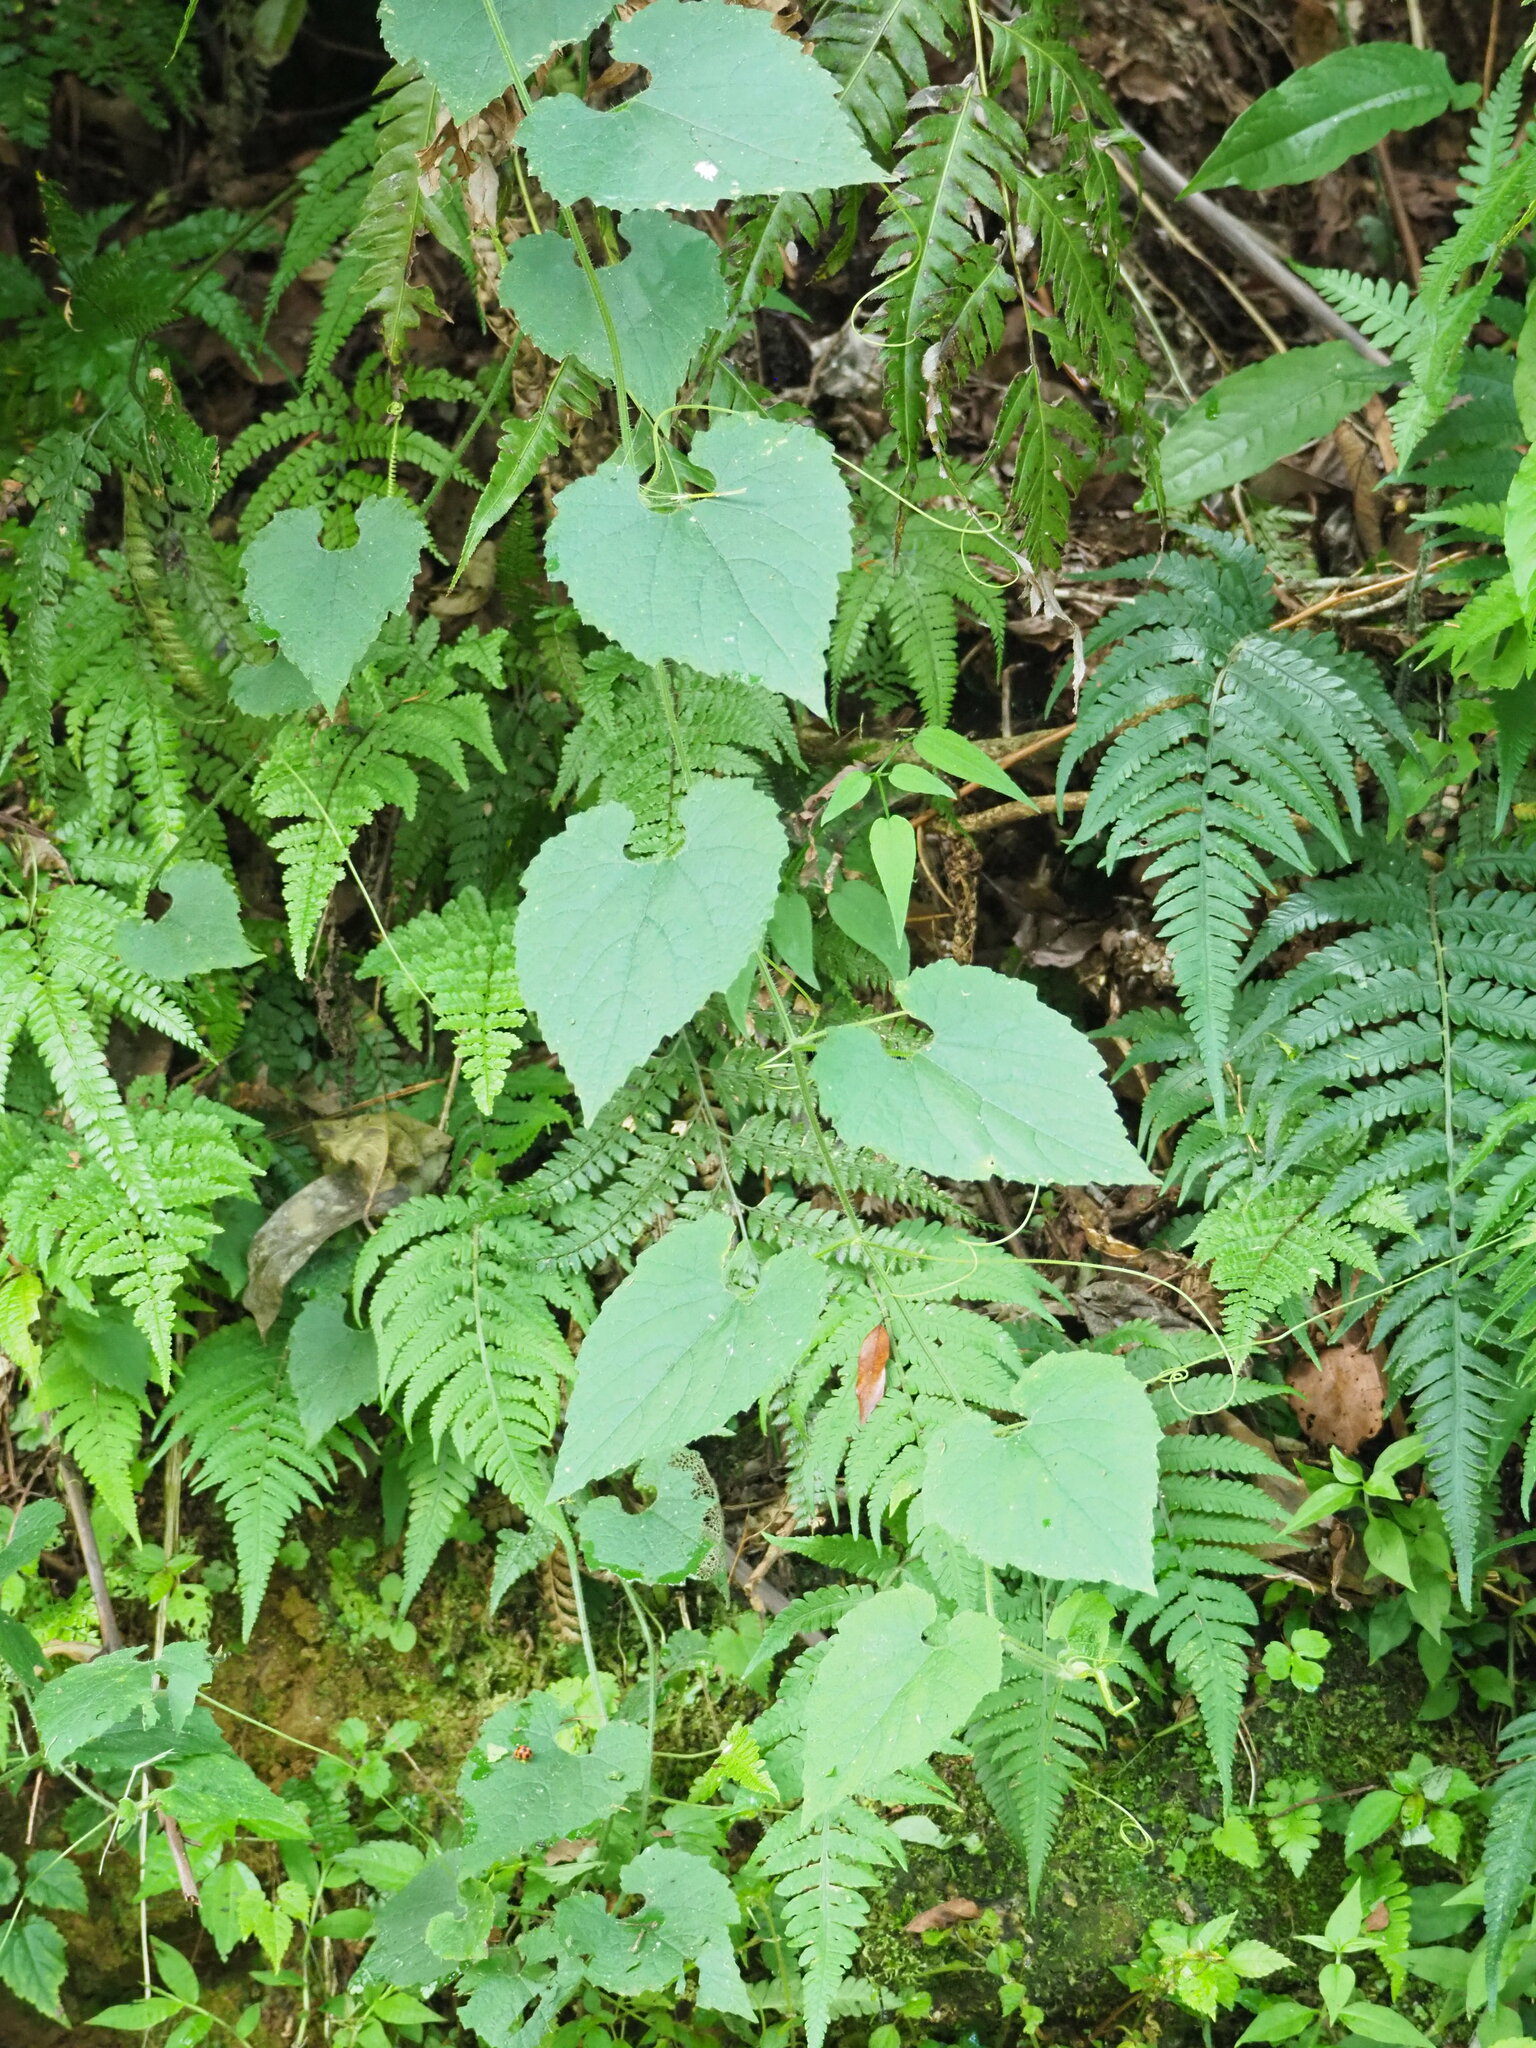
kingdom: Plantae
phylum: Tracheophyta
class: Magnoliopsida
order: Cucurbitales
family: Cucurbitaceae
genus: Thladiantha
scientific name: Thladiantha nudiflora
